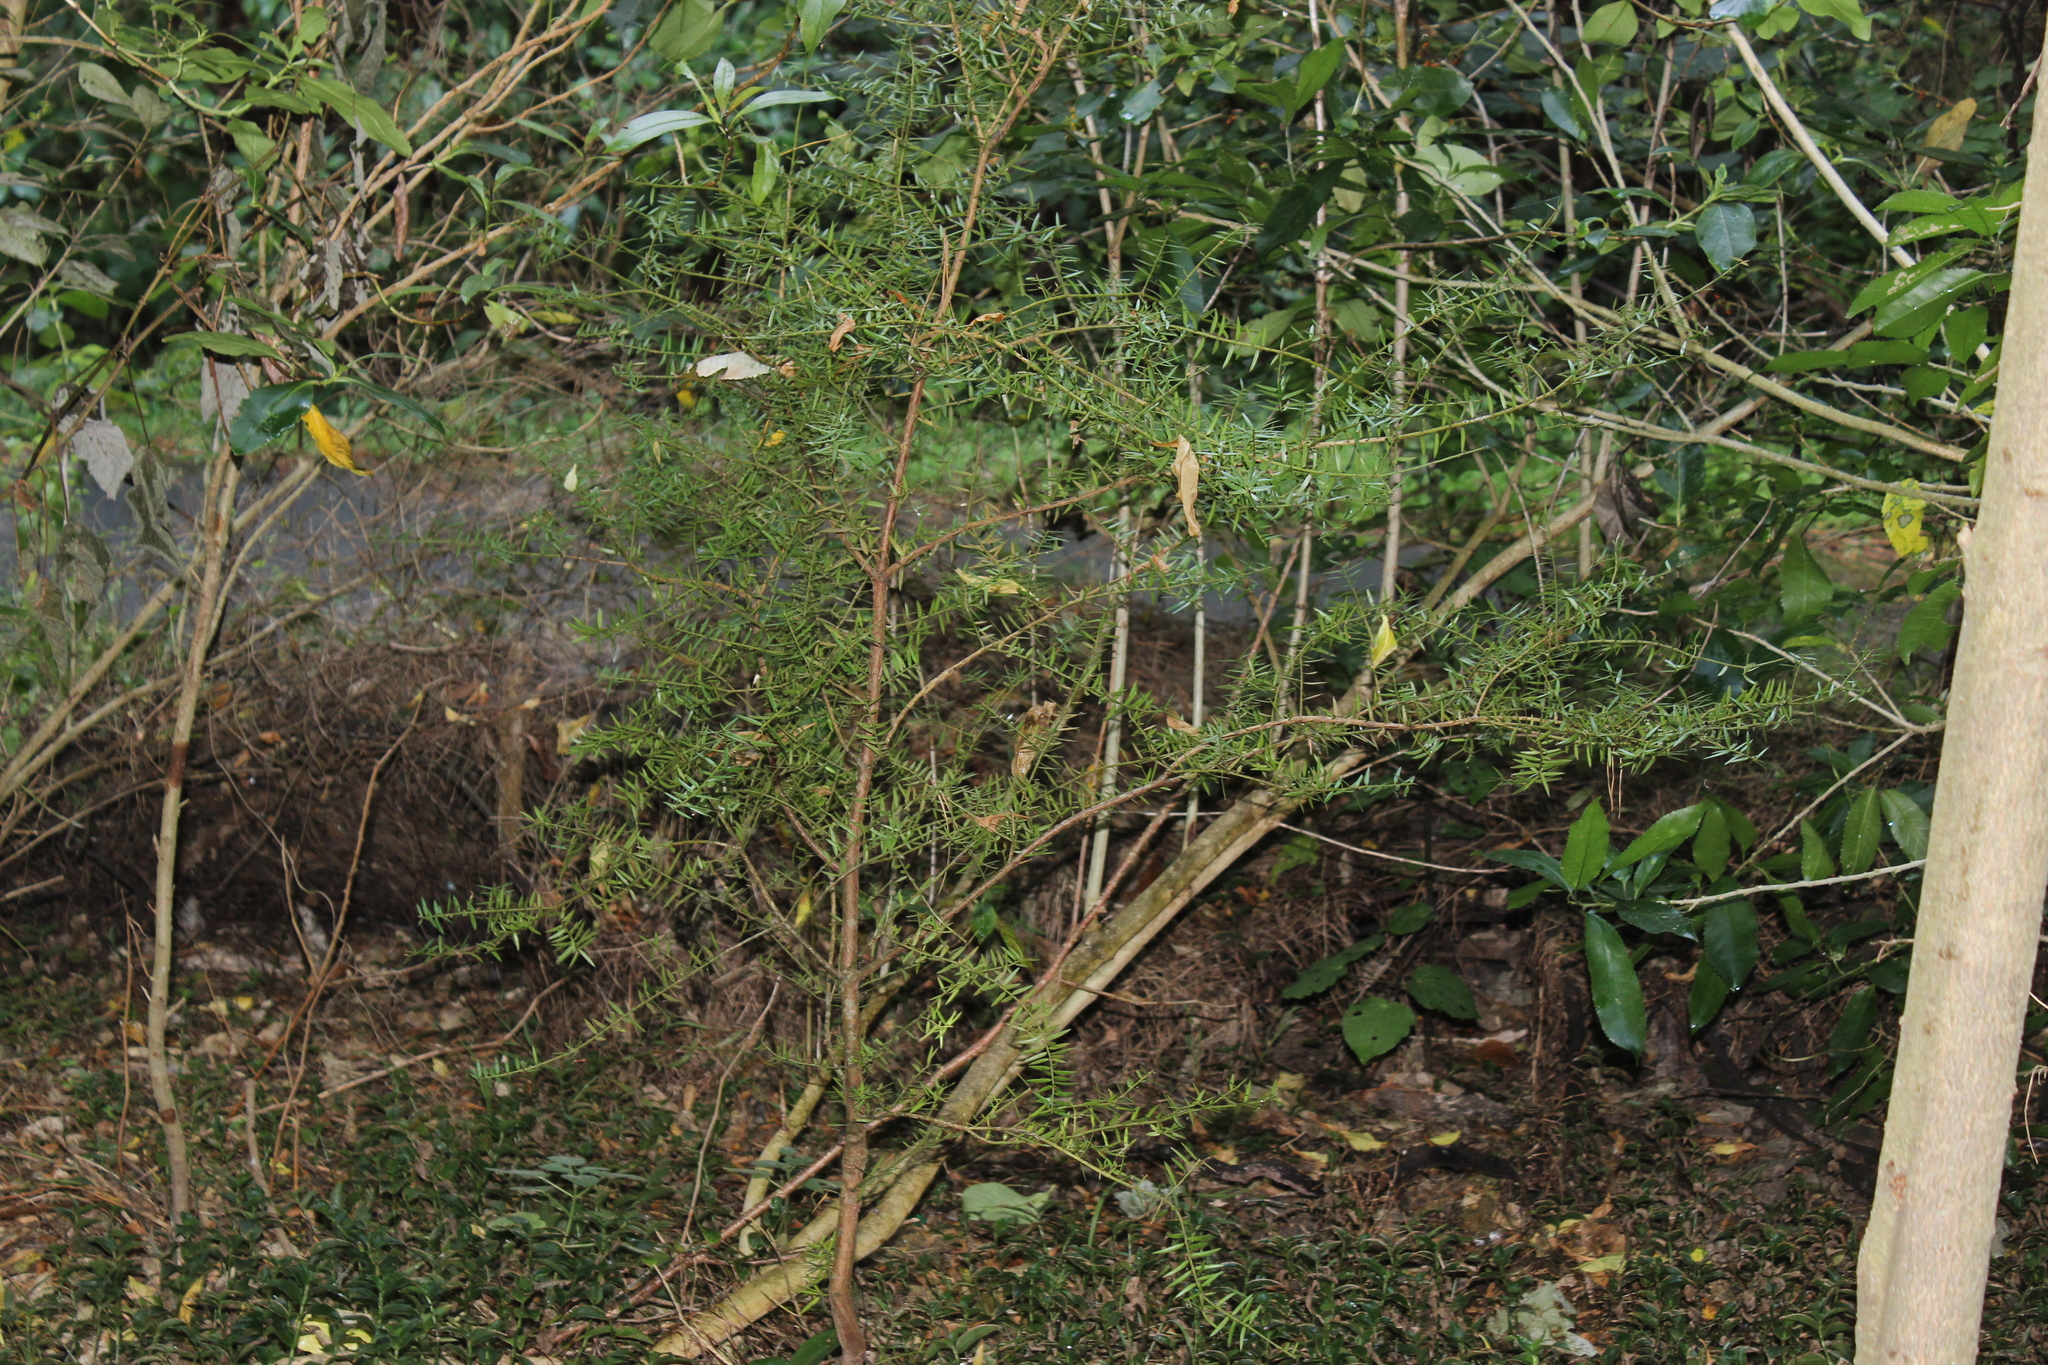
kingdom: Plantae
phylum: Tracheophyta
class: Pinopsida
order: Pinales
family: Podocarpaceae
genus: Podocarpus
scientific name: Podocarpus totara
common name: Totara
